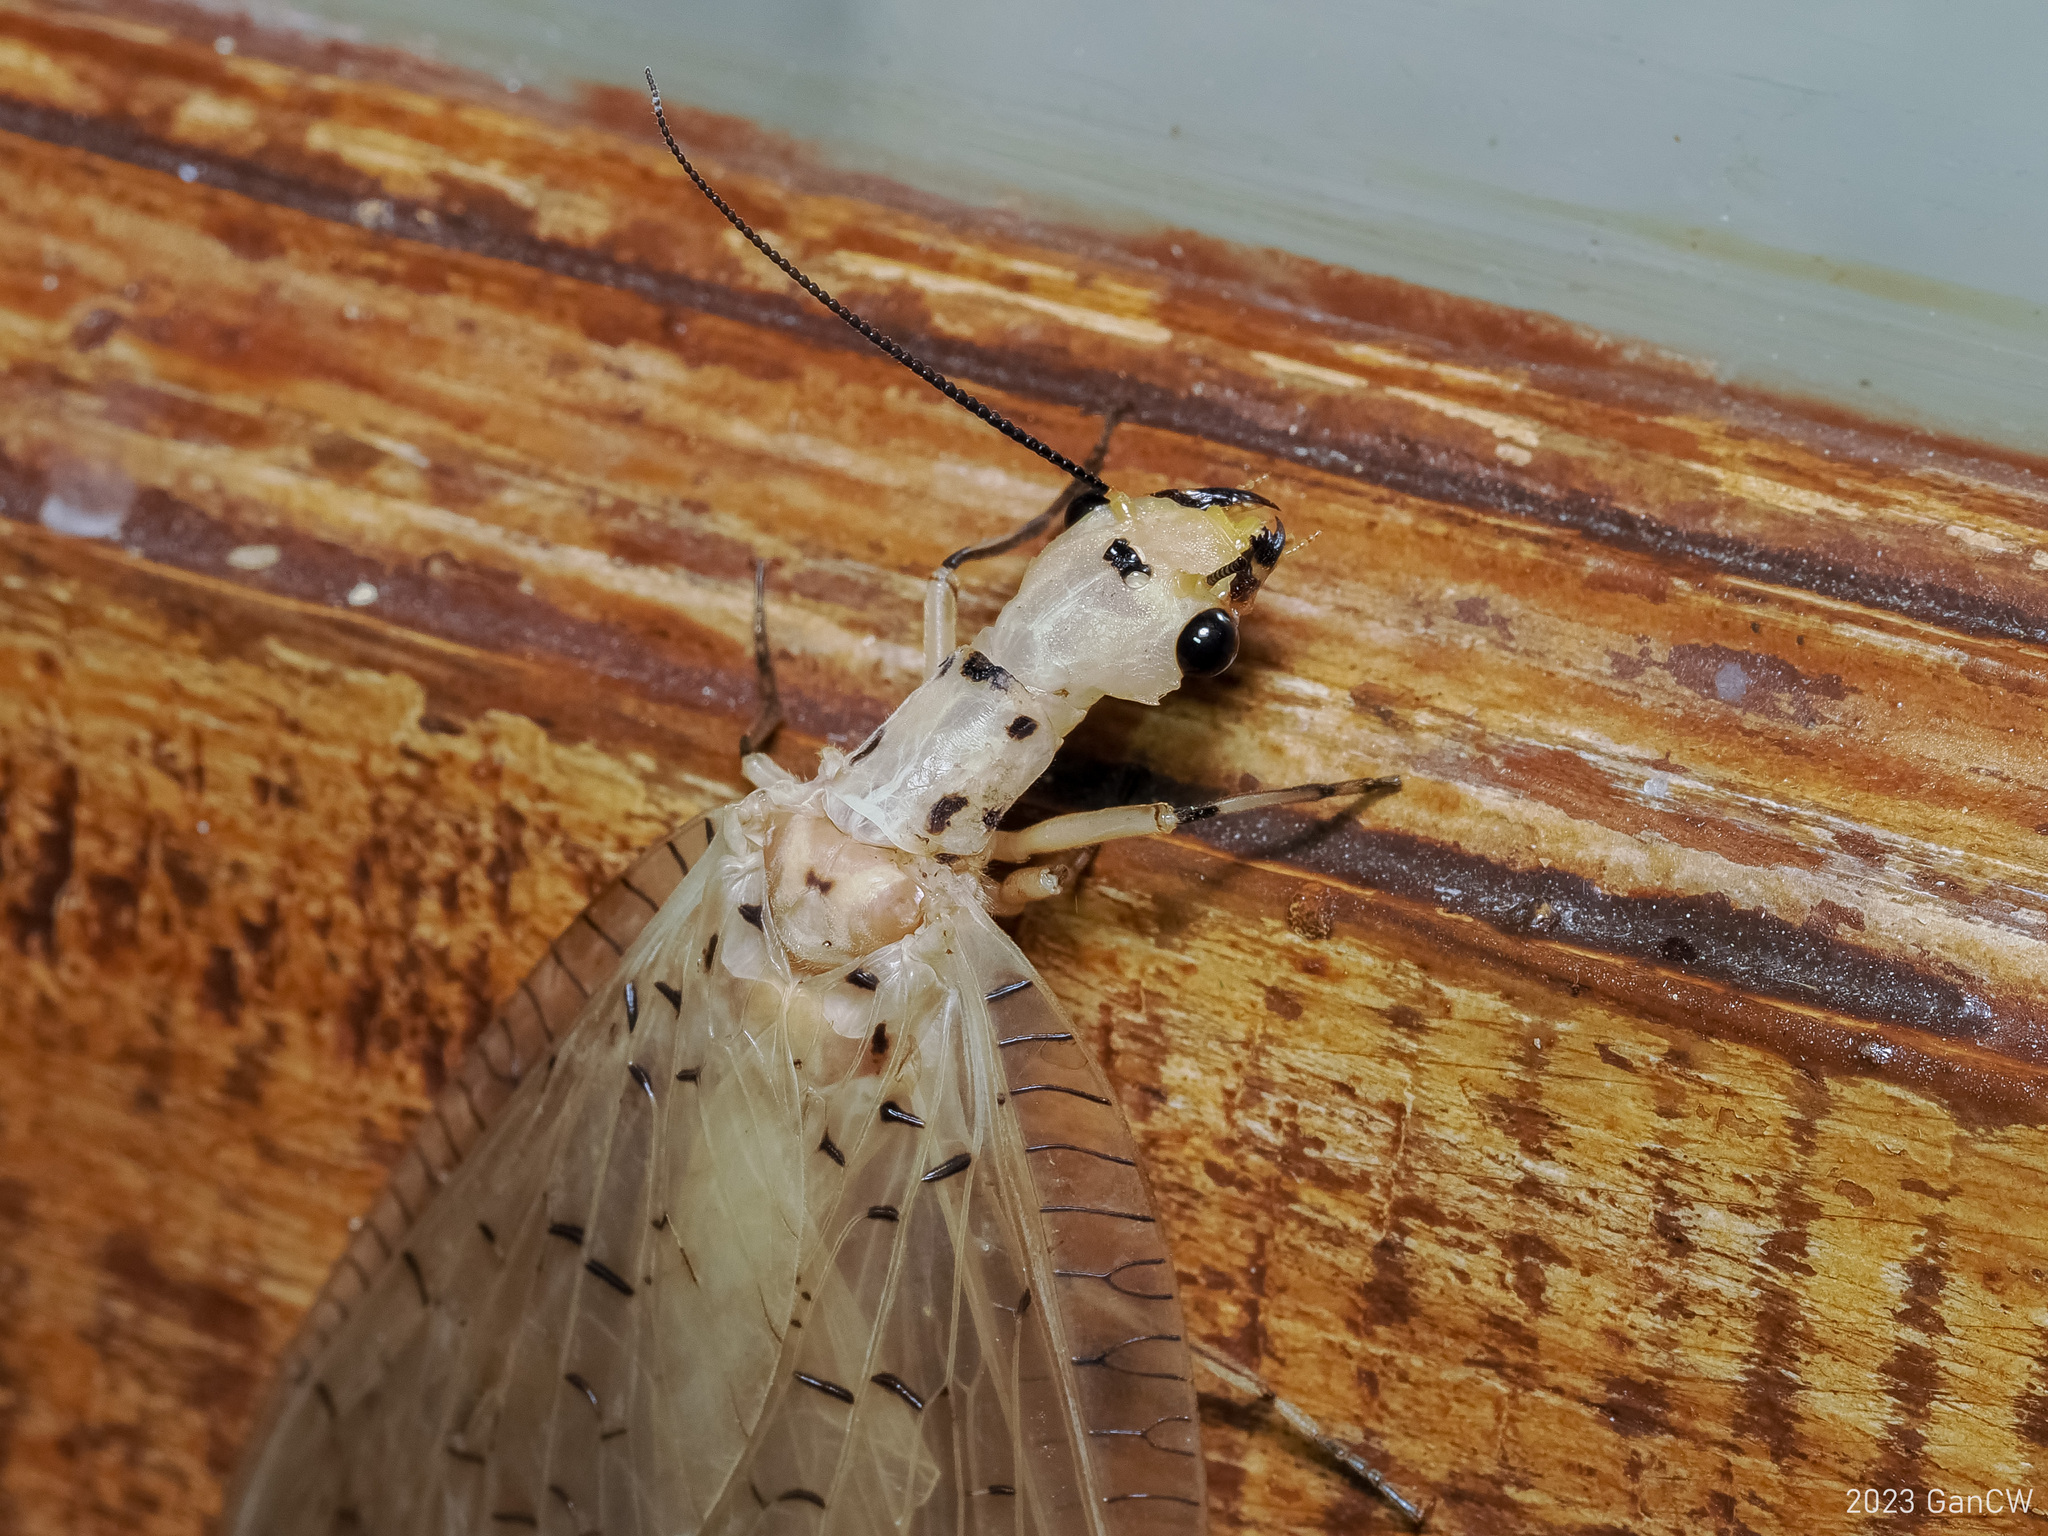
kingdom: Animalia
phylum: Arthropoda
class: Insecta
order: Megaloptera
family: Corydalidae
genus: Nevromus
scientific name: Nevromus testaceus
